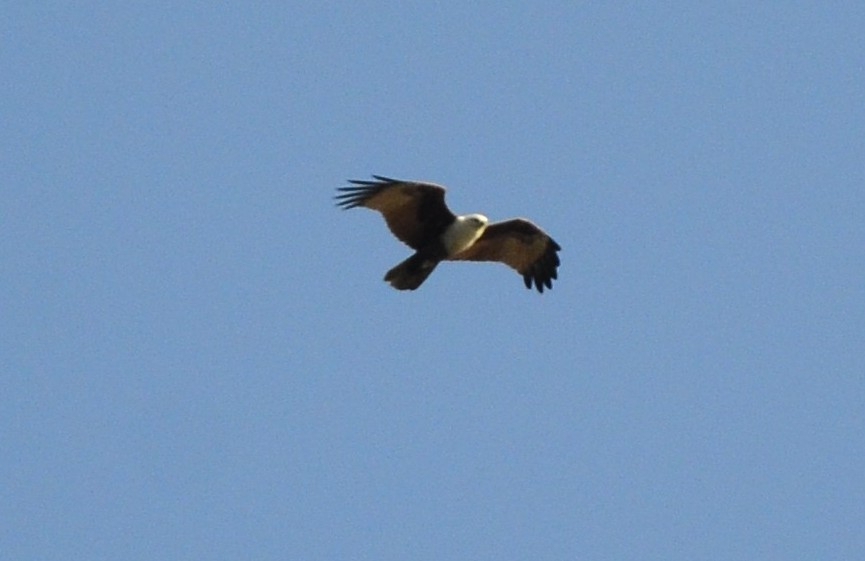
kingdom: Animalia
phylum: Chordata
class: Aves
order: Accipitriformes
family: Accipitridae
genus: Haliastur
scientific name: Haliastur indus
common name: Brahminy kite
